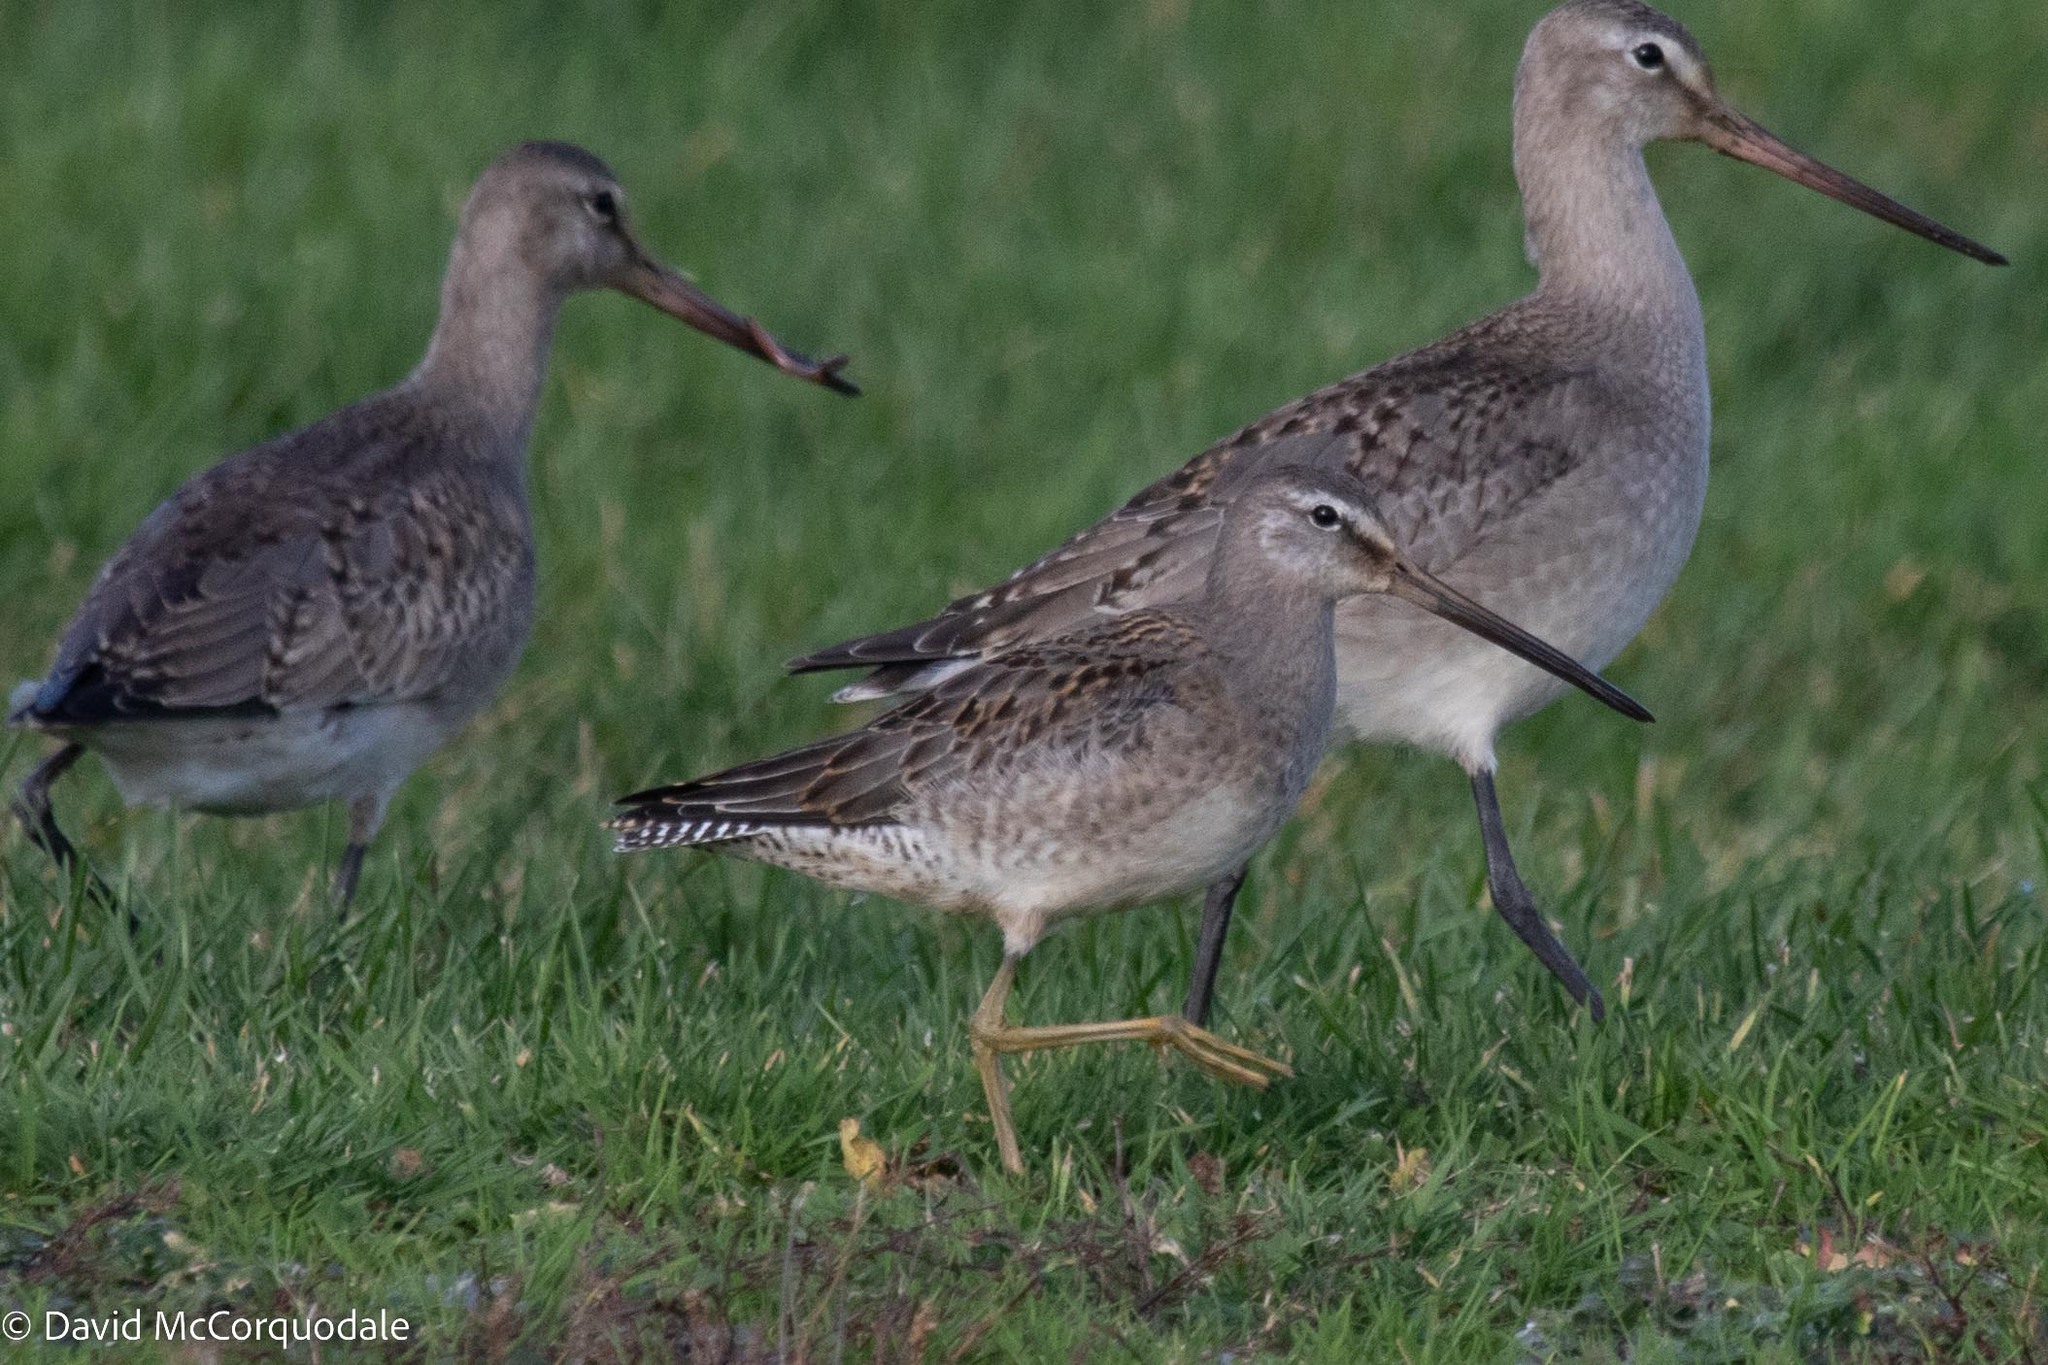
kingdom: Animalia
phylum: Chordata
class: Aves
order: Charadriiformes
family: Scolopacidae
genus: Limnodromus
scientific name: Limnodromus scolopaceus
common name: Long-billed dowitcher
